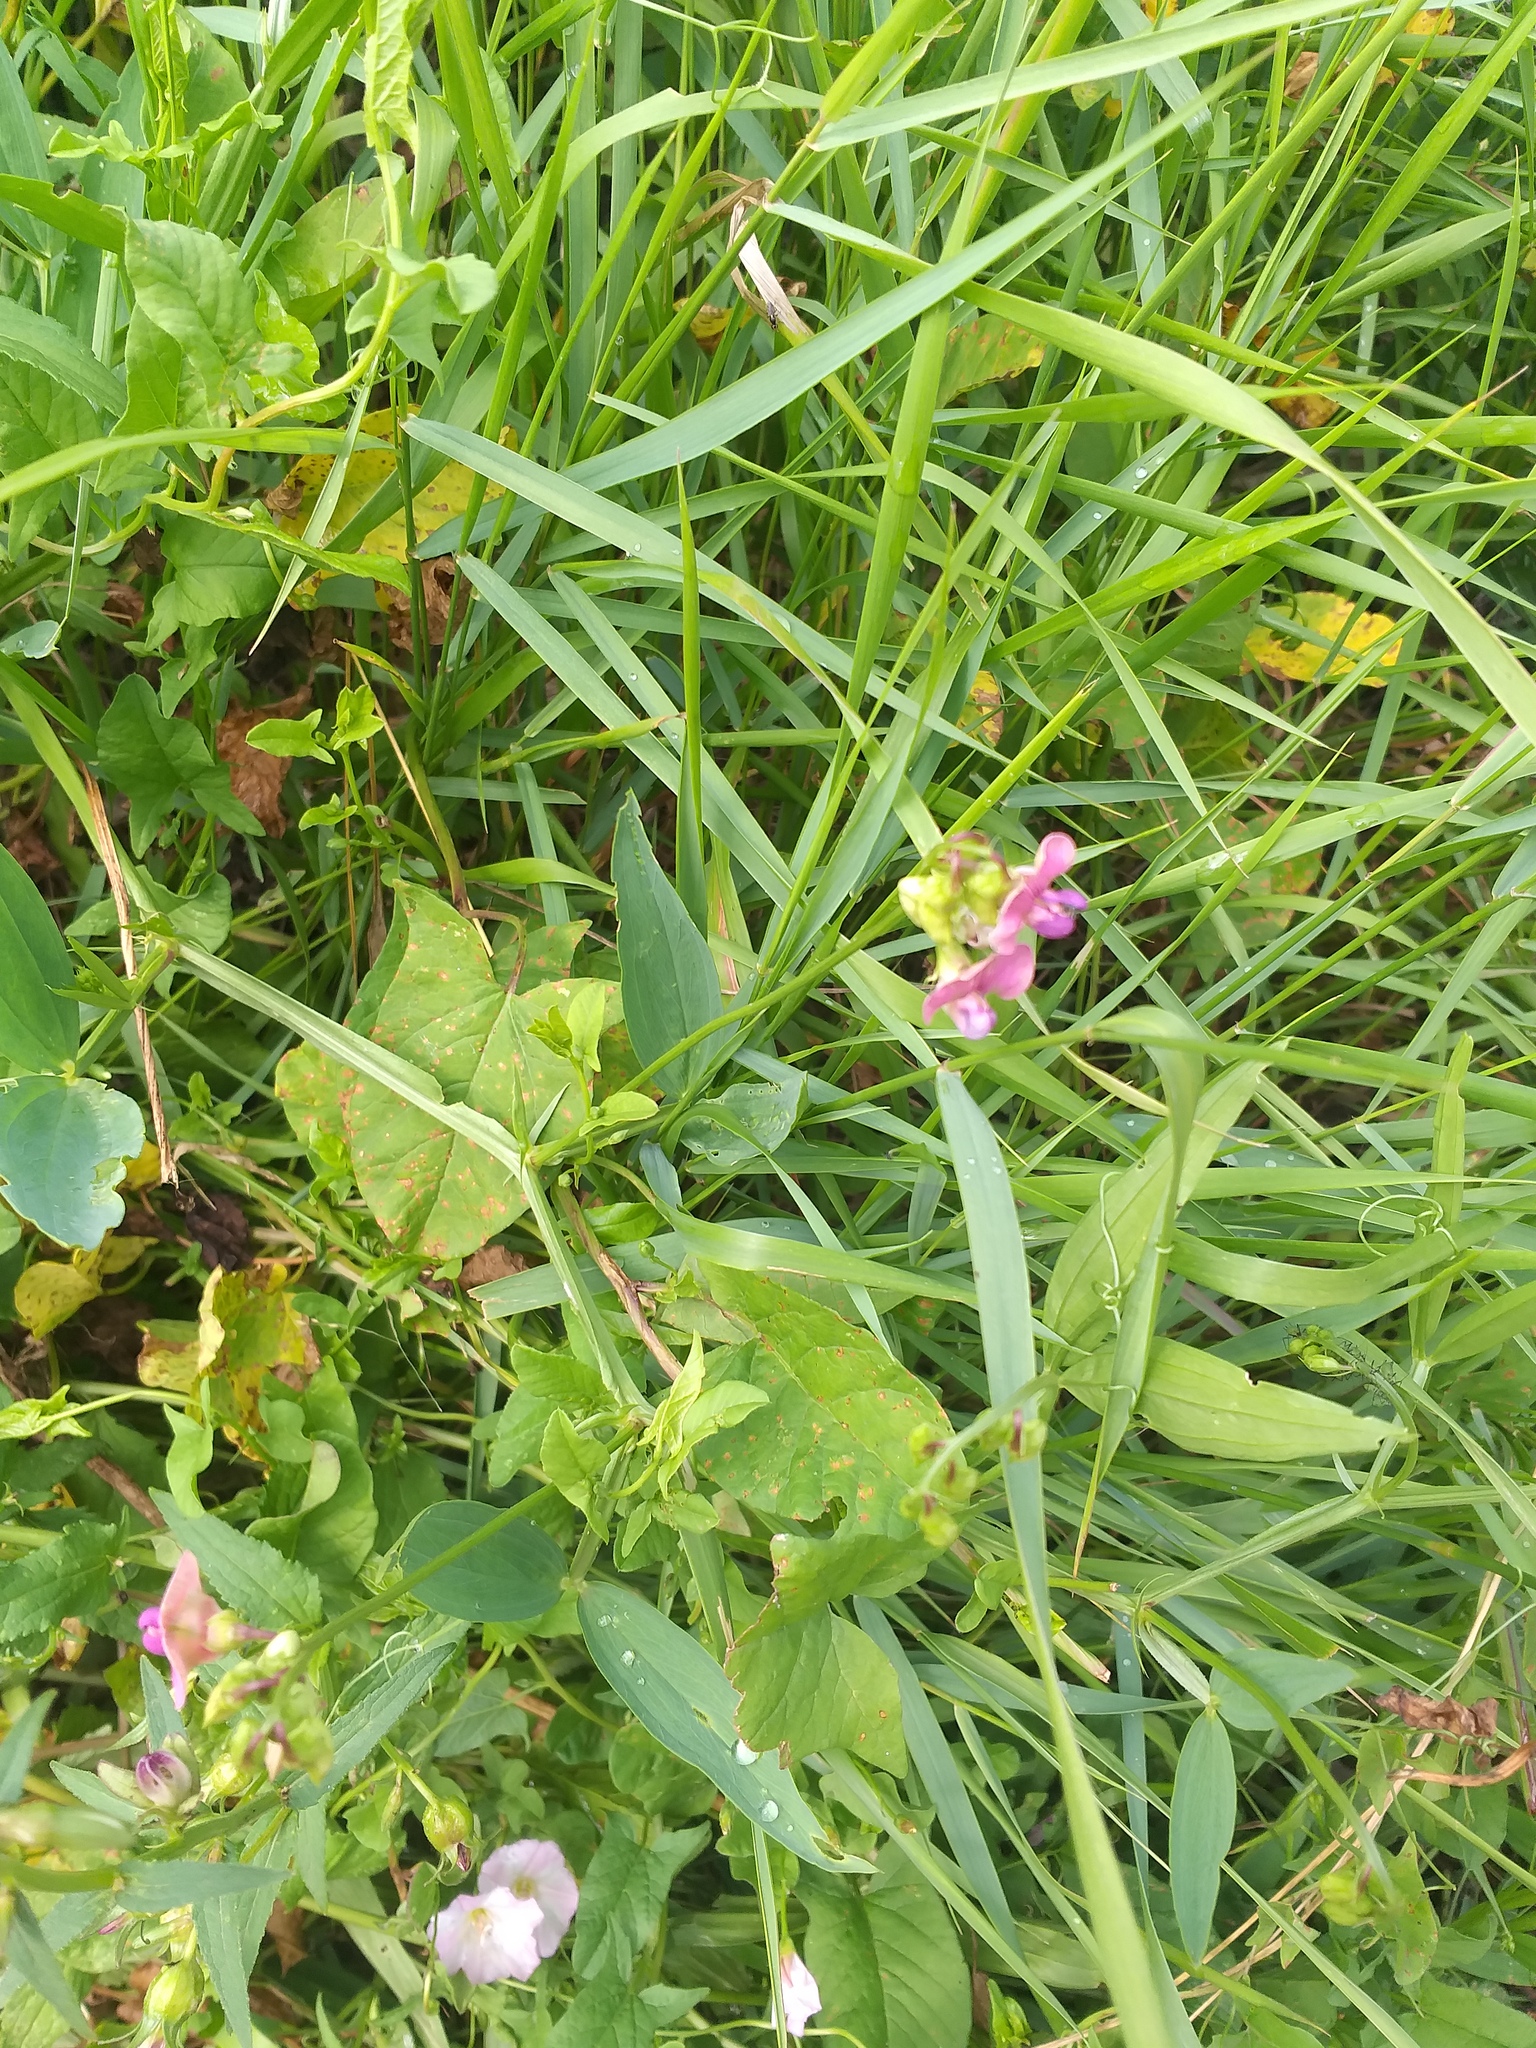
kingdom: Plantae
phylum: Tracheophyta
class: Magnoliopsida
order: Fabales
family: Fabaceae
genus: Lathyrus
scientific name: Lathyrus sylvestris
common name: Flat pea
